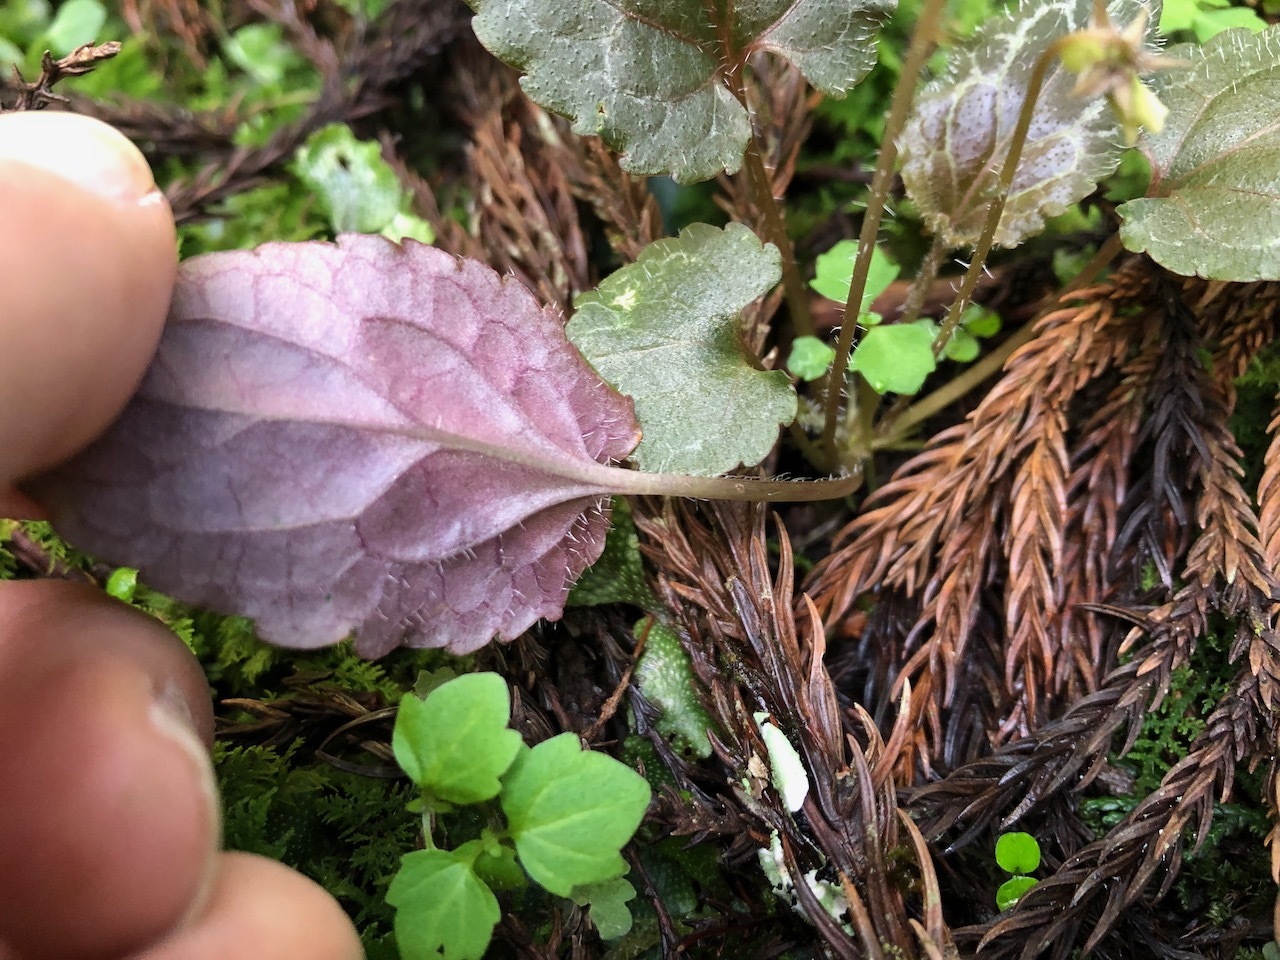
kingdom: Plantae
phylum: Tracheophyta
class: Magnoliopsida
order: Malpighiales
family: Violaceae
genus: Viola
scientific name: Viola maximowicziana
